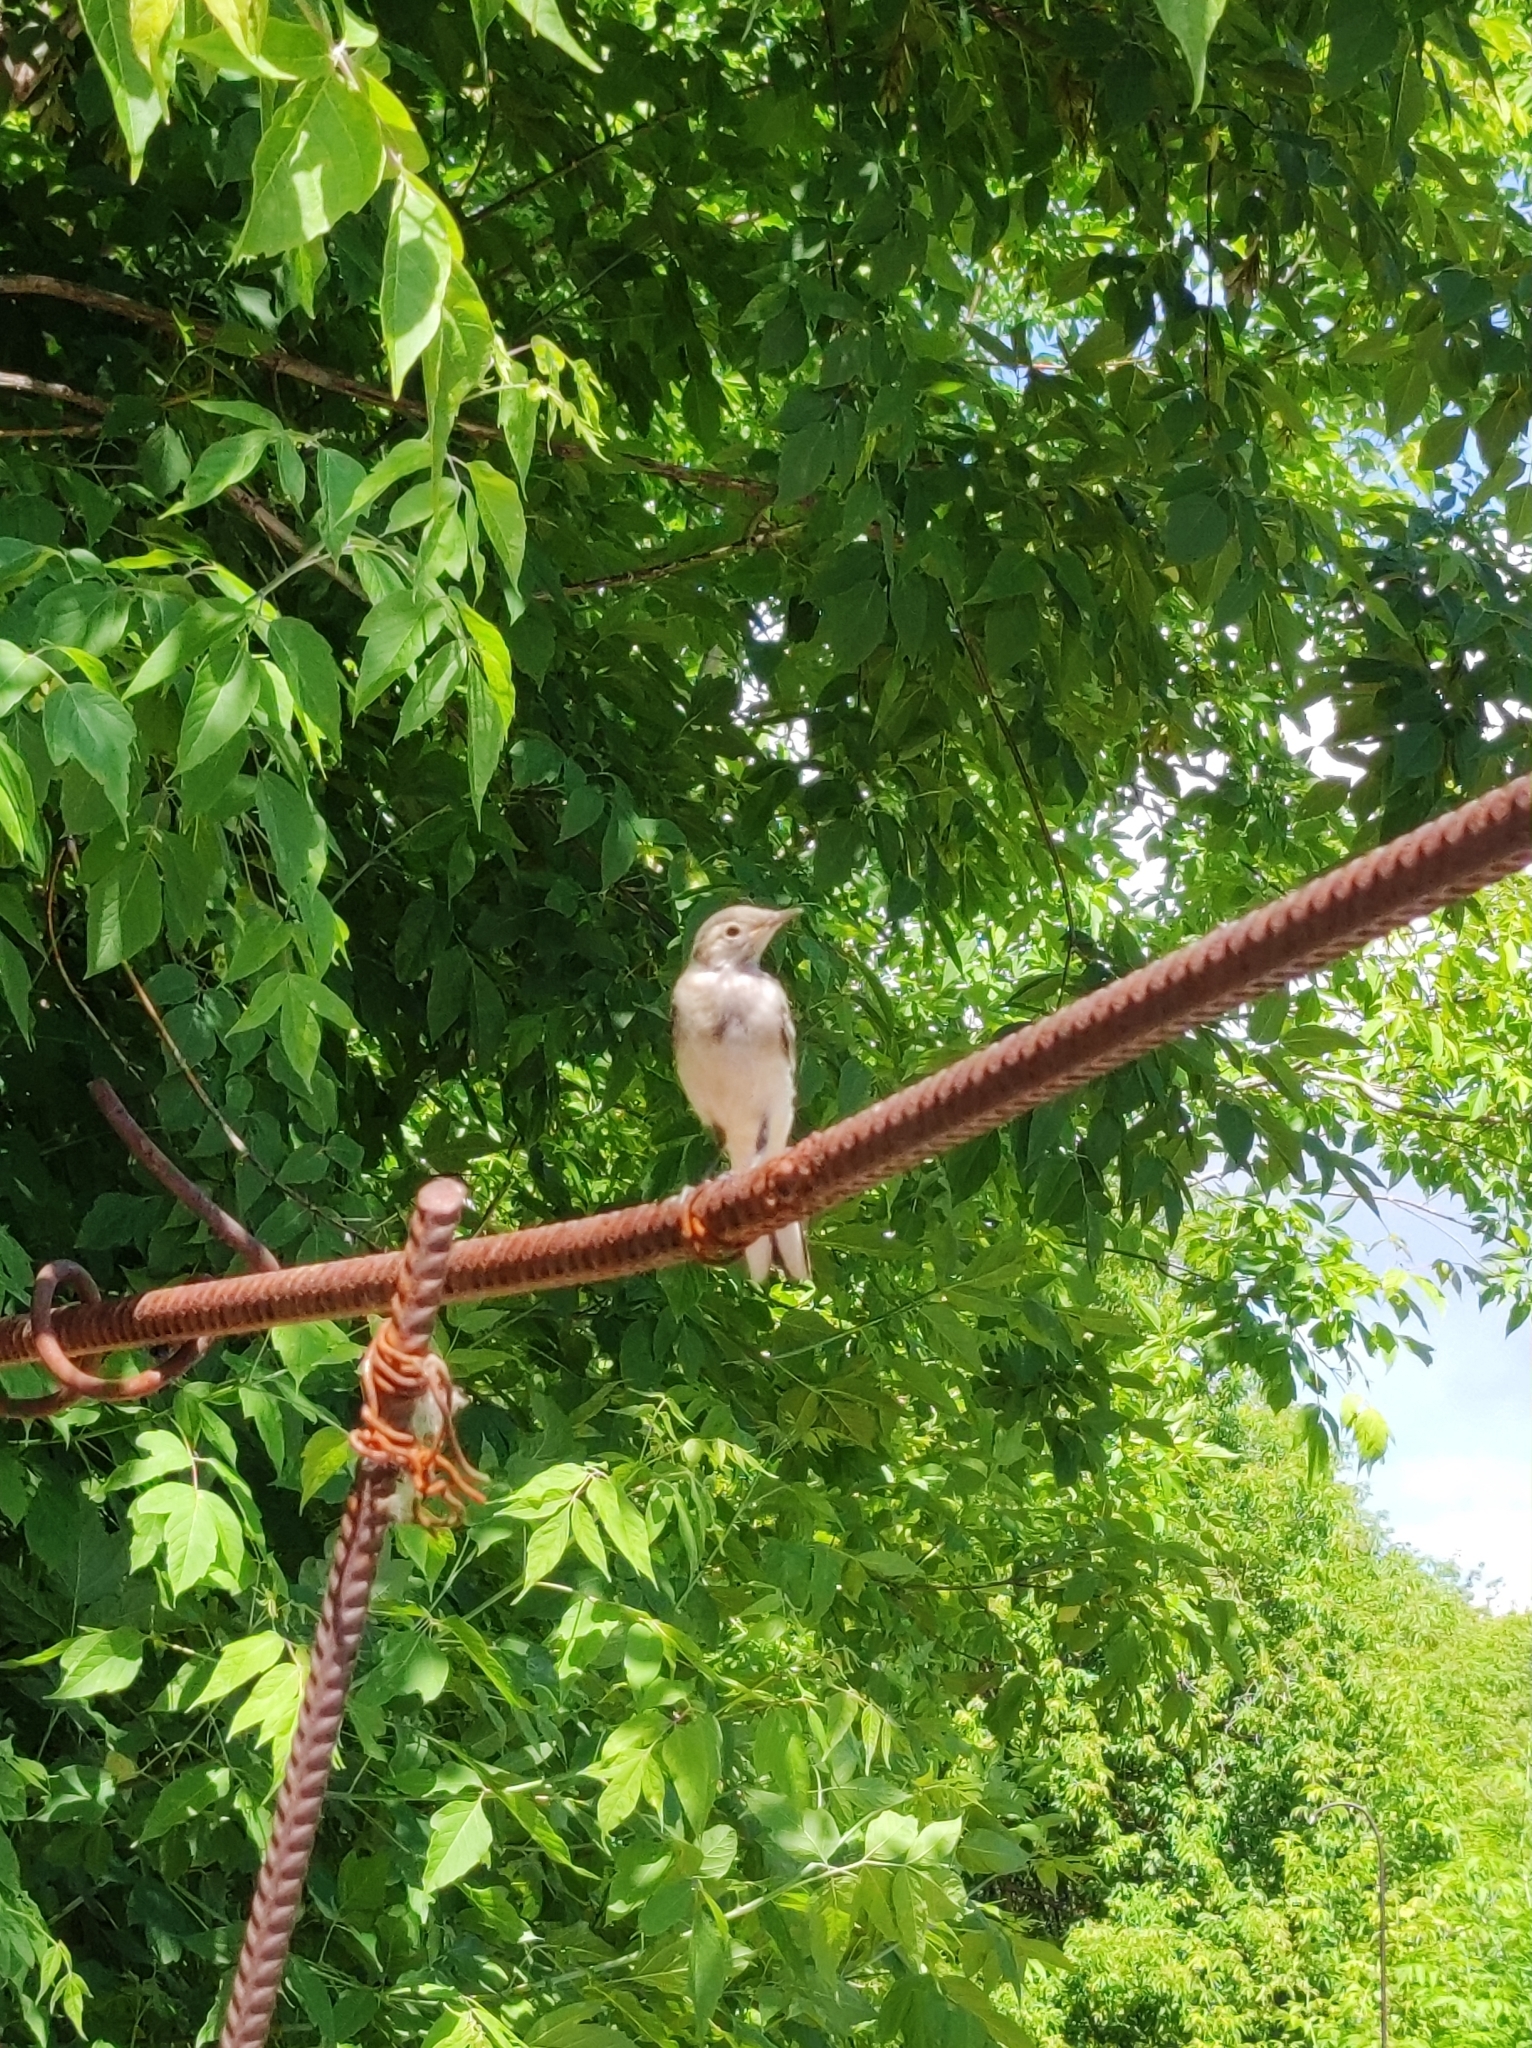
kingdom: Animalia
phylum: Chordata
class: Aves
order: Passeriformes
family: Motacillidae
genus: Motacilla
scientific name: Motacilla alba
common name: White wagtail
